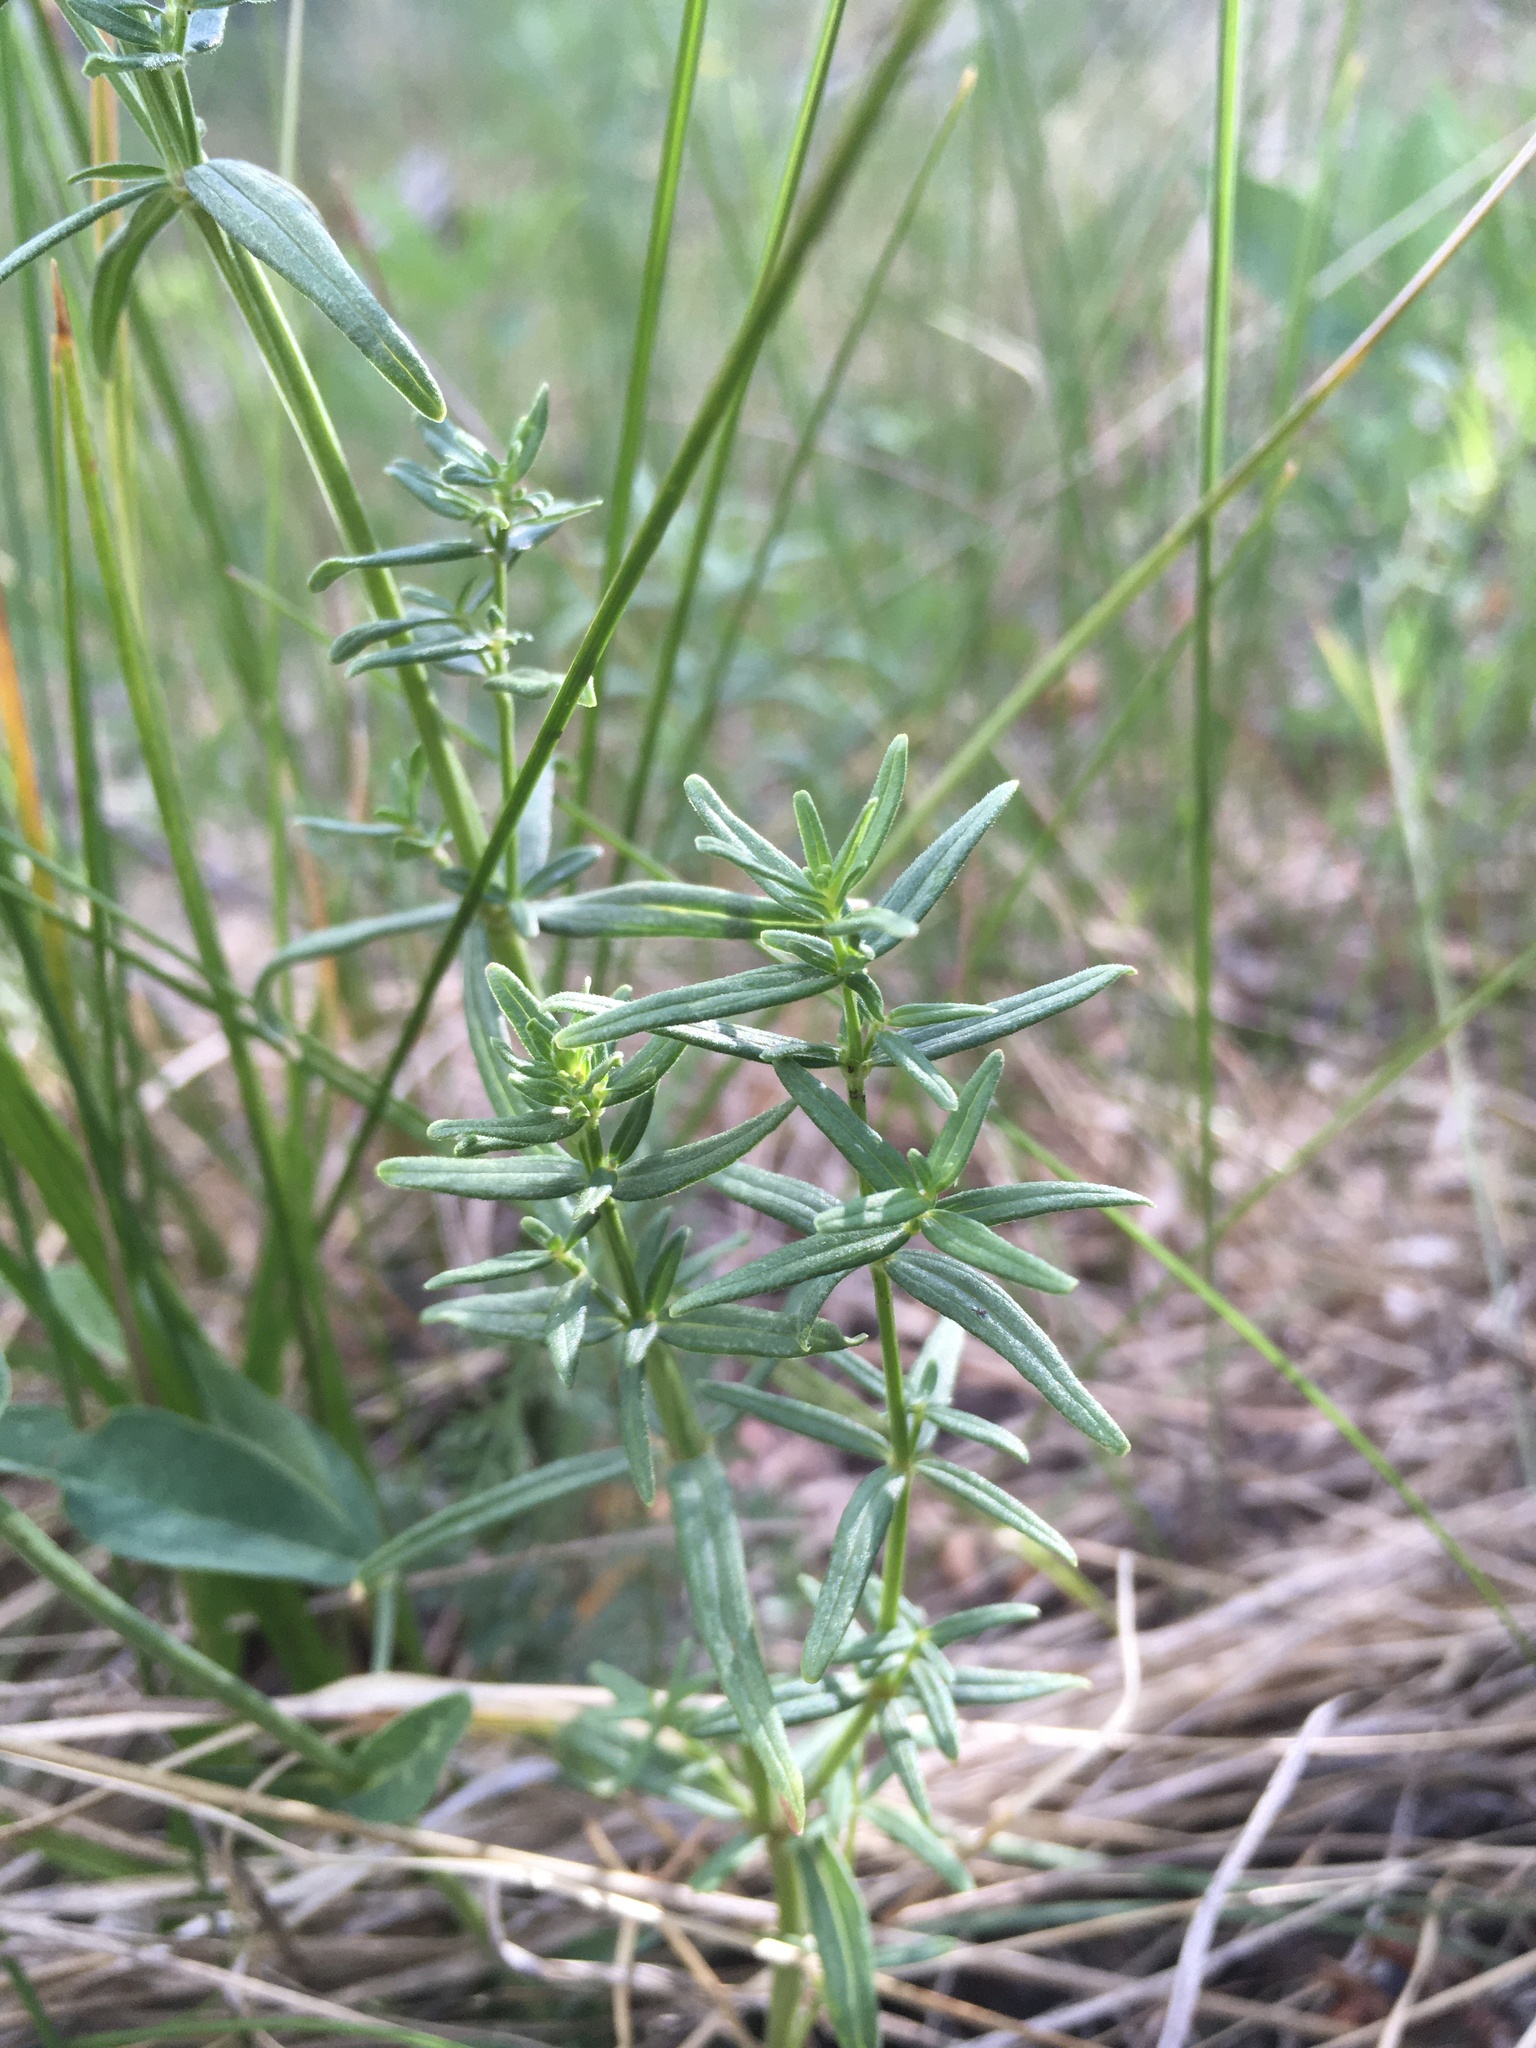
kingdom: Plantae
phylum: Tracheophyta
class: Magnoliopsida
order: Gentianales
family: Rubiaceae
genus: Galium
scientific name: Galium boreale
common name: Northern bedstraw
